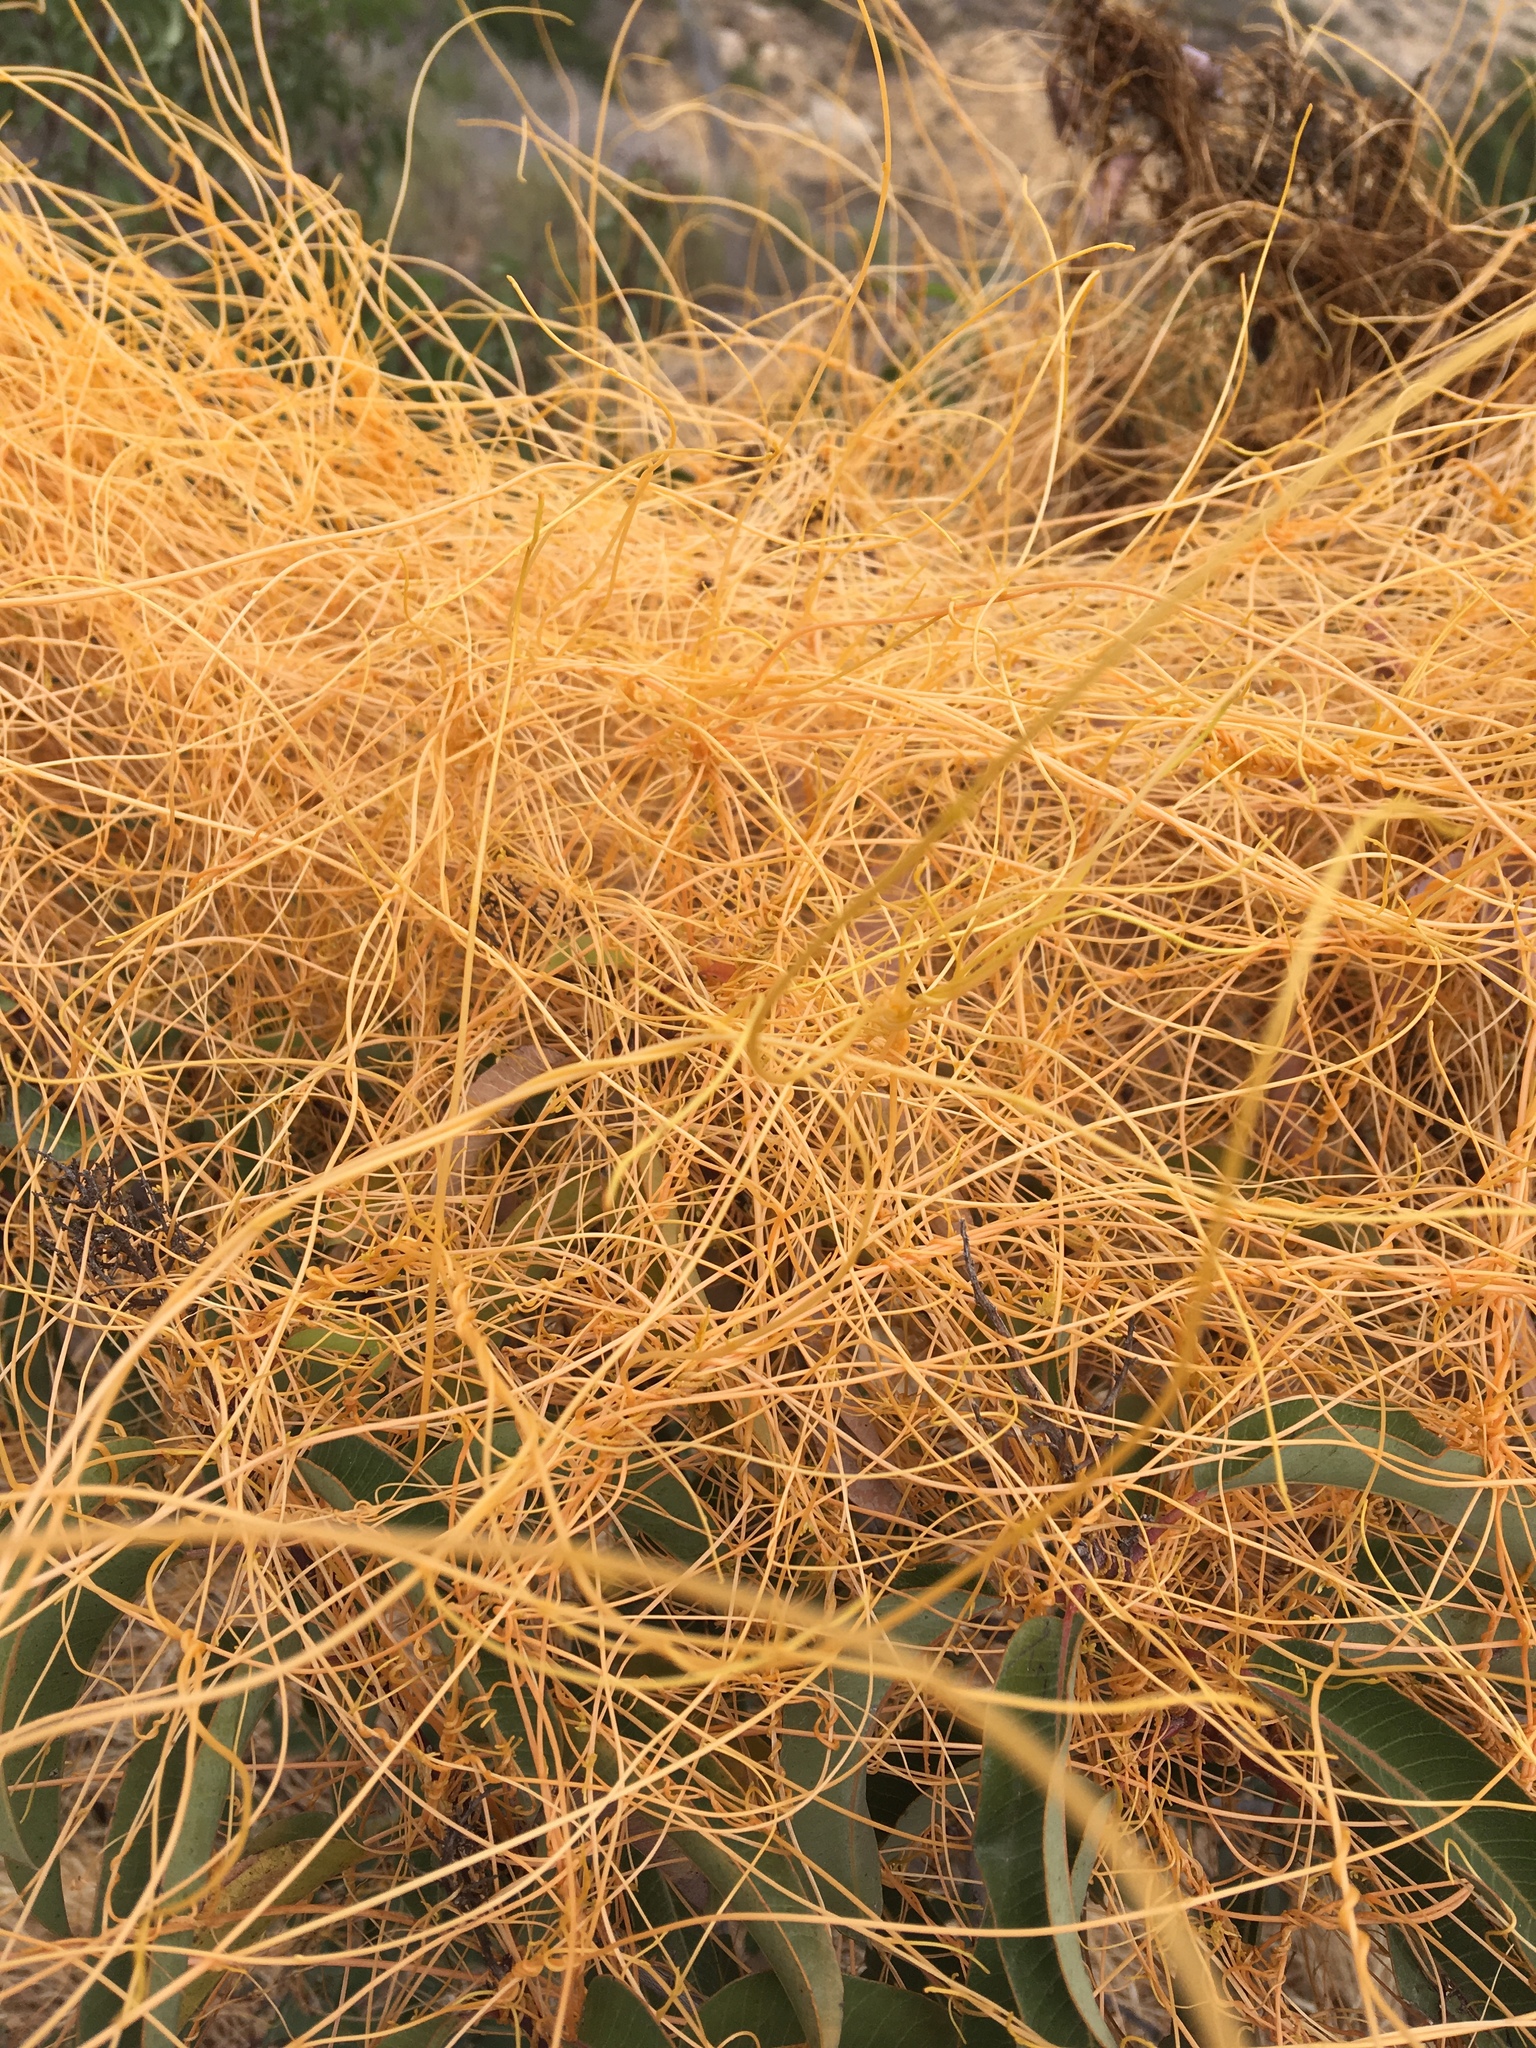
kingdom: Plantae
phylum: Tracheophyta
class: Magnoliopsida
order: Solanales
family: Convolvulaceae
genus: Cuscuta
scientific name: Cuscuta californica
